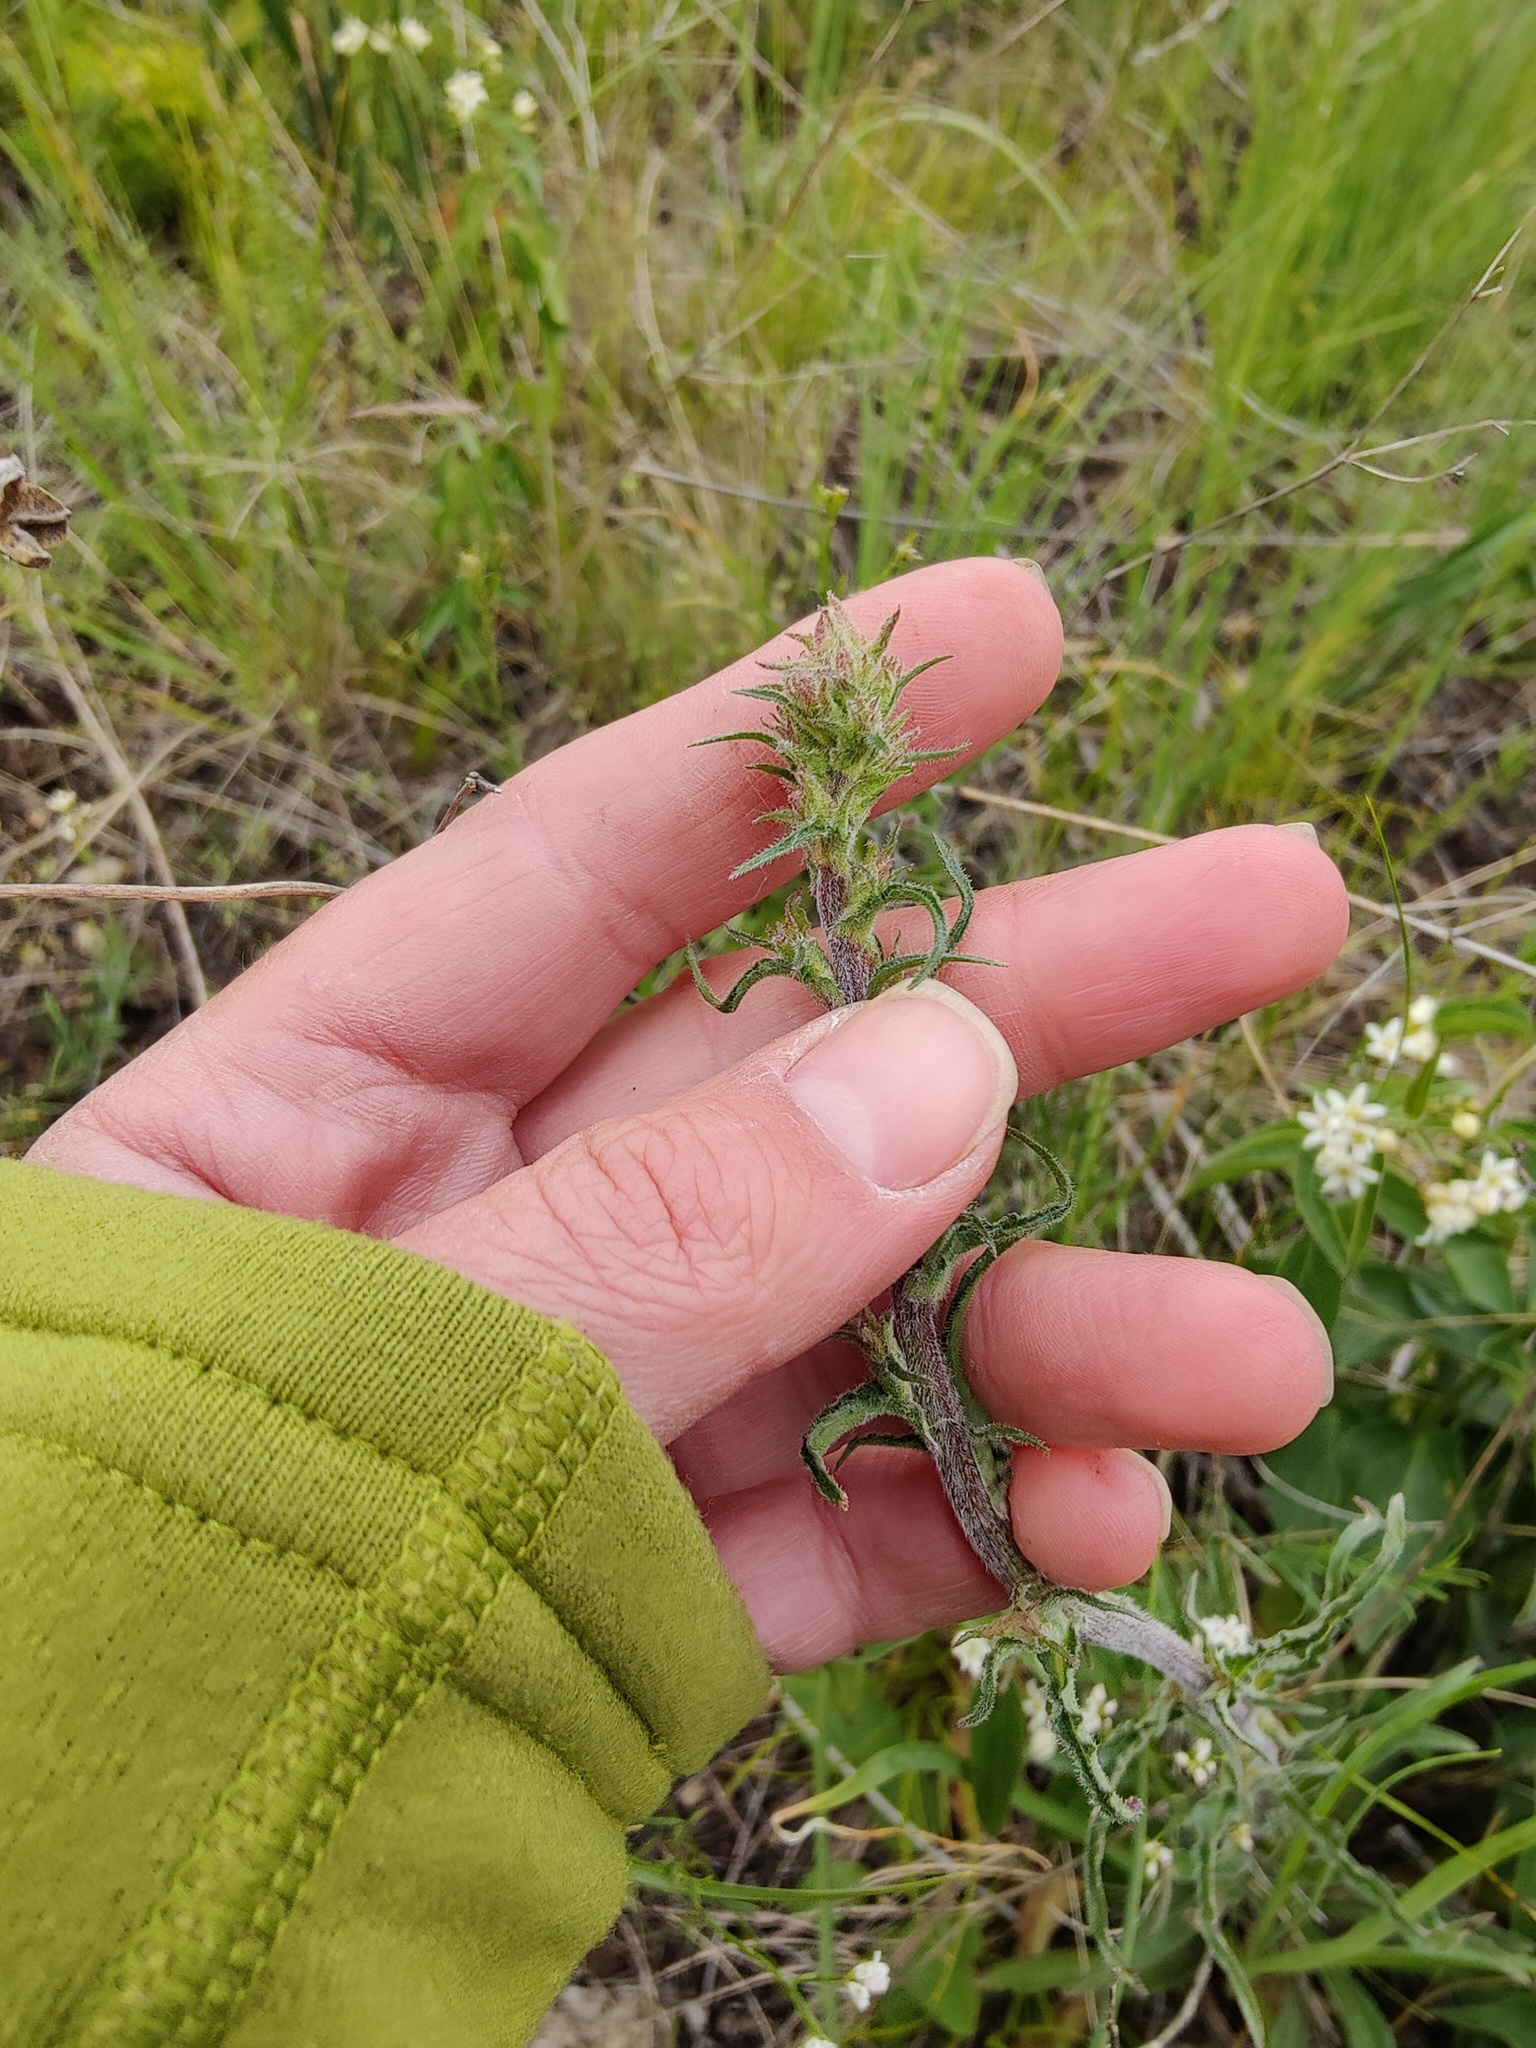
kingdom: Plantae
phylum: Tracheophyta
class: Magnoliopsida
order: Asterales
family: Campanulaceae
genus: Campanula
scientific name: Campanula sibirica
